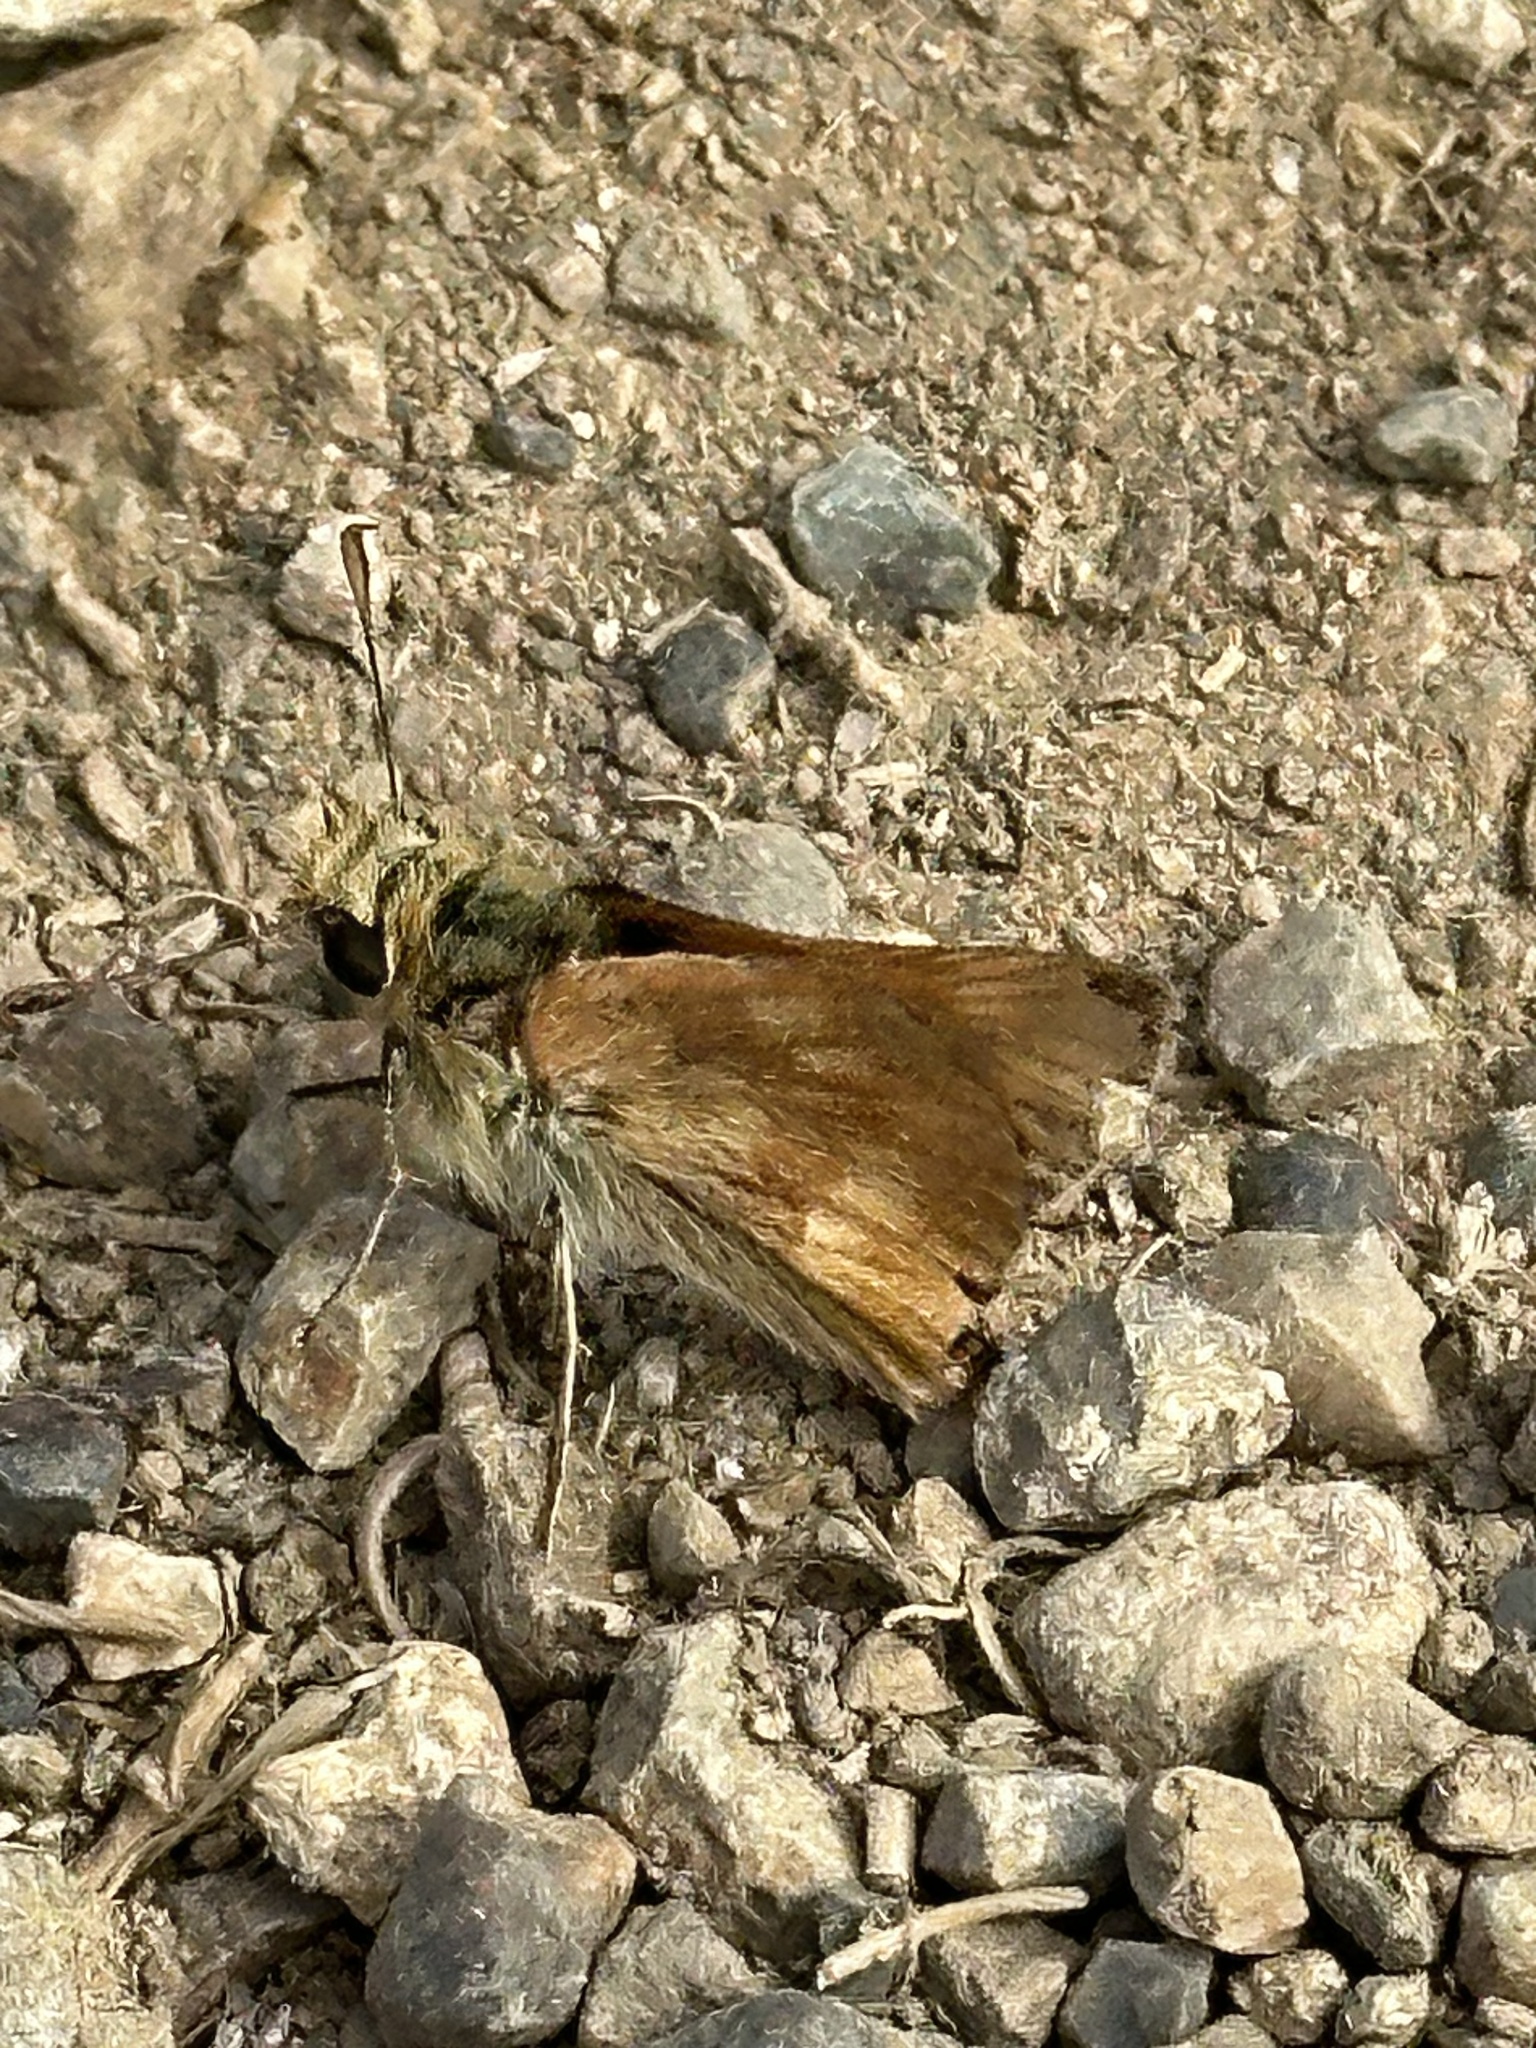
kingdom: Animalia
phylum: Arthropoda
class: Insecta
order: Lepidoptera
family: Hesperiidae
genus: Ochlodes
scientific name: Ochlodes sylvanoides
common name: Woodland skipper
